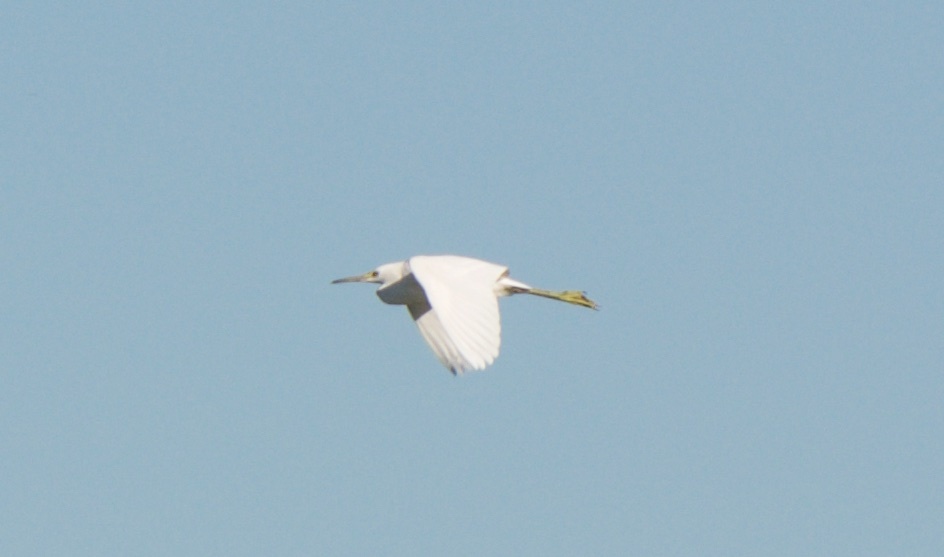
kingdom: Animalia
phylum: Chordata
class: Aves
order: Pelecaniformes
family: Ardeidae
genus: Egretta
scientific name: Egretta thula
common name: Snowy egret
